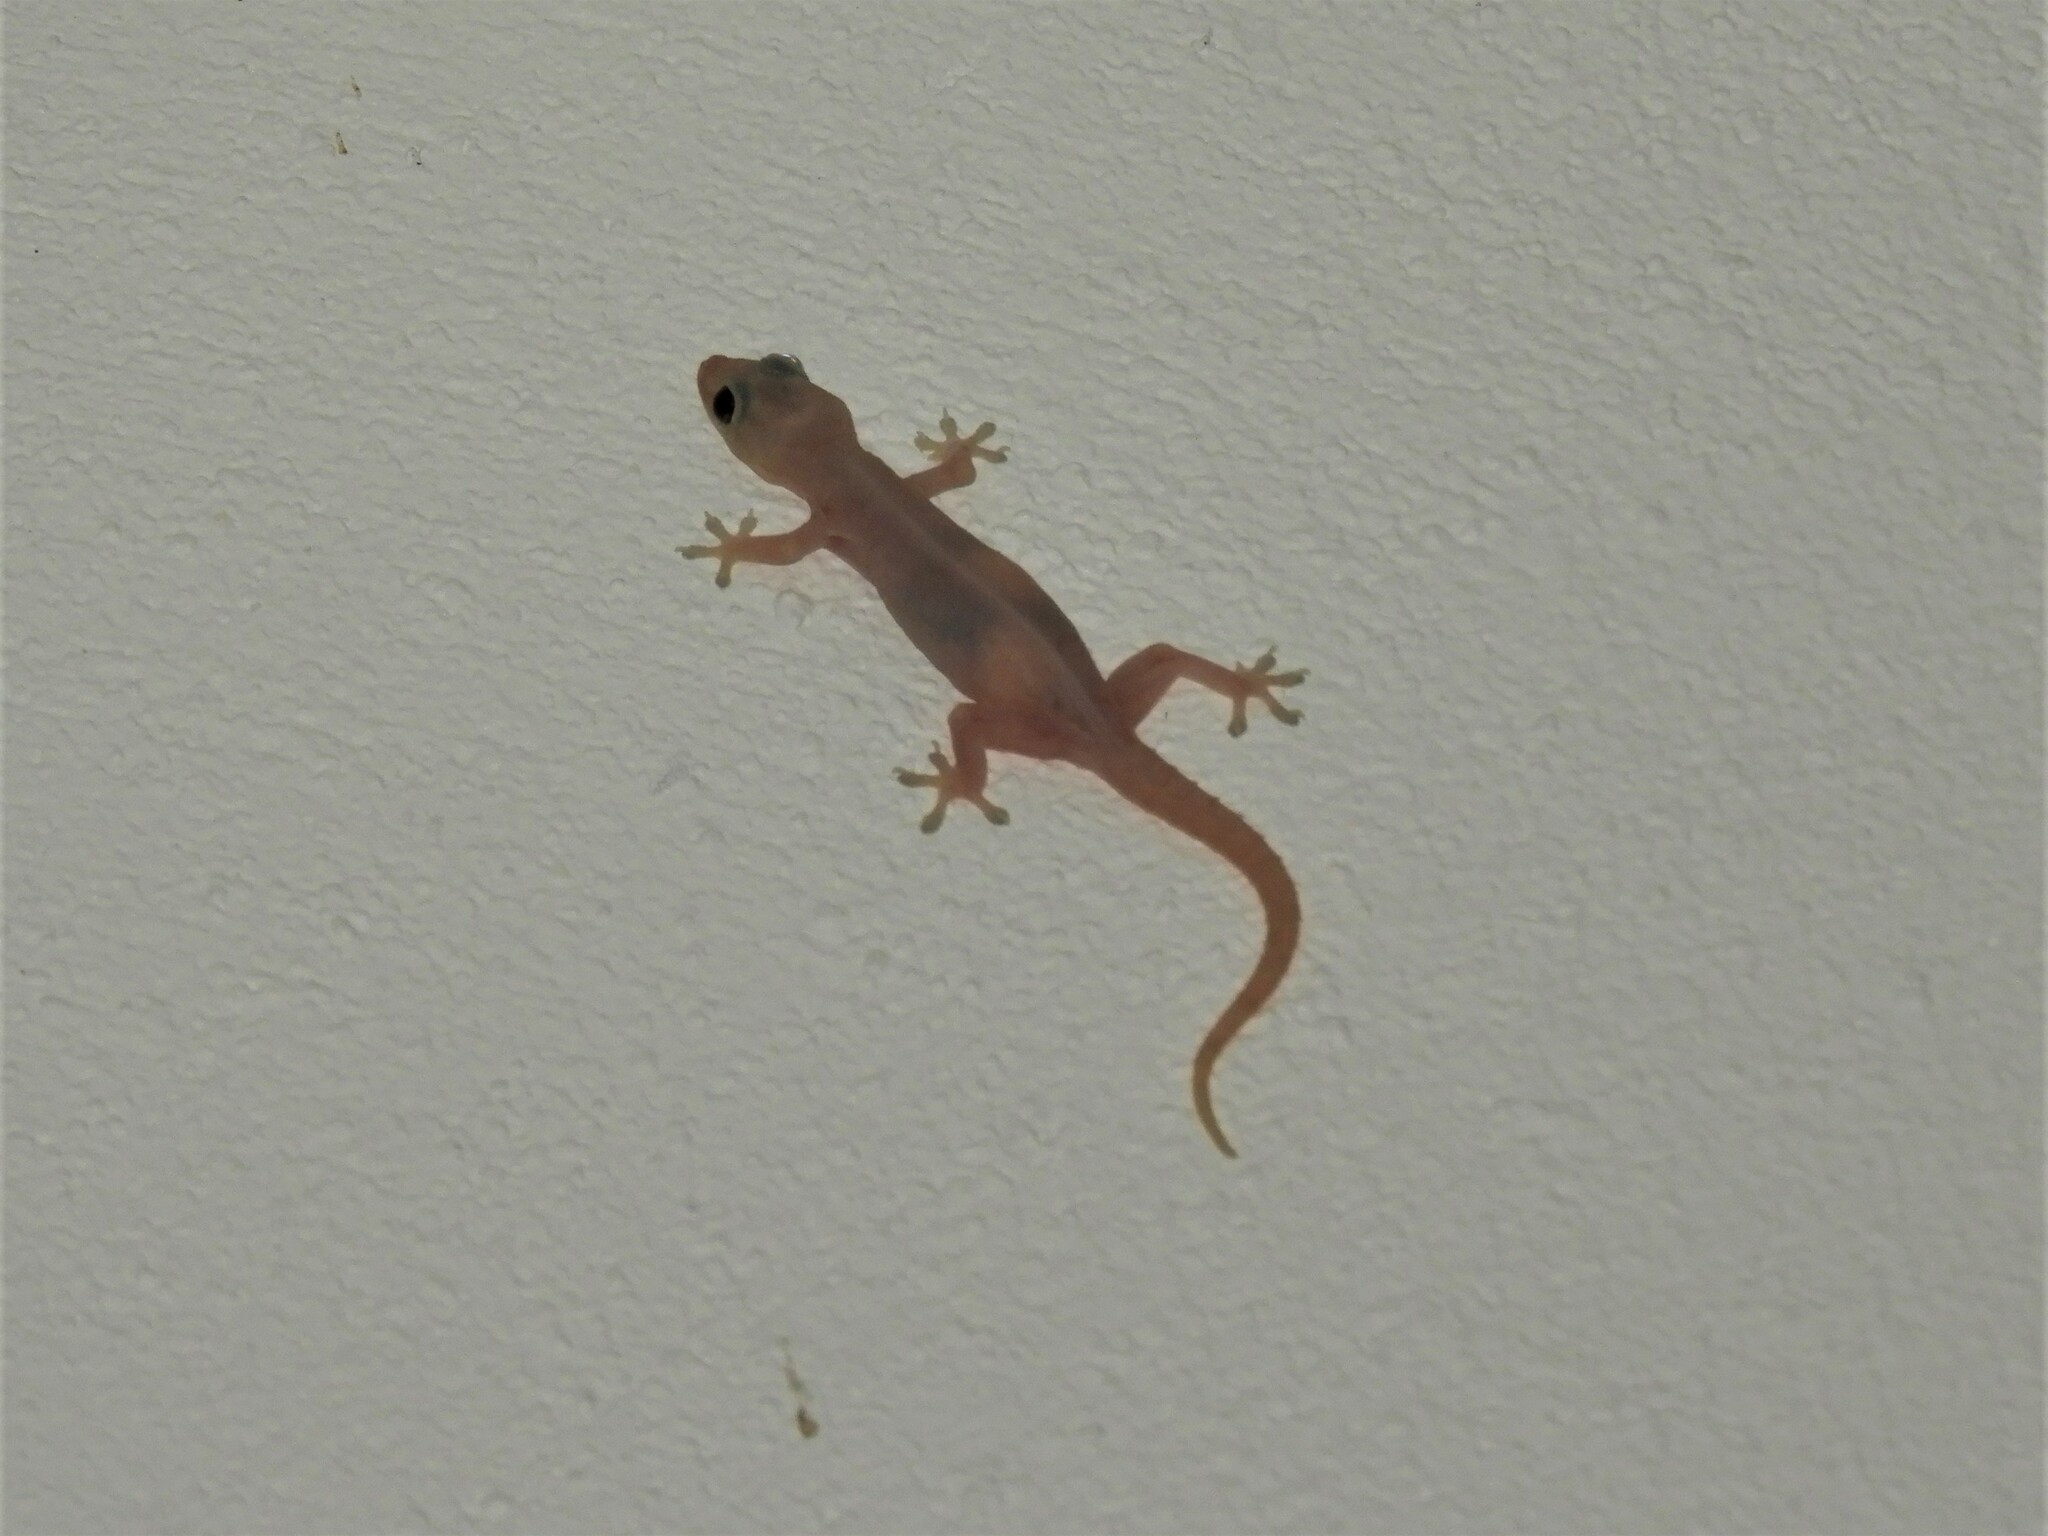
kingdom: Animalia
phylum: Chordata
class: Squamata
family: Gekkonidae
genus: Hemidactylus
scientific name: Hemidactylus frenatus
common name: Common house gecko
